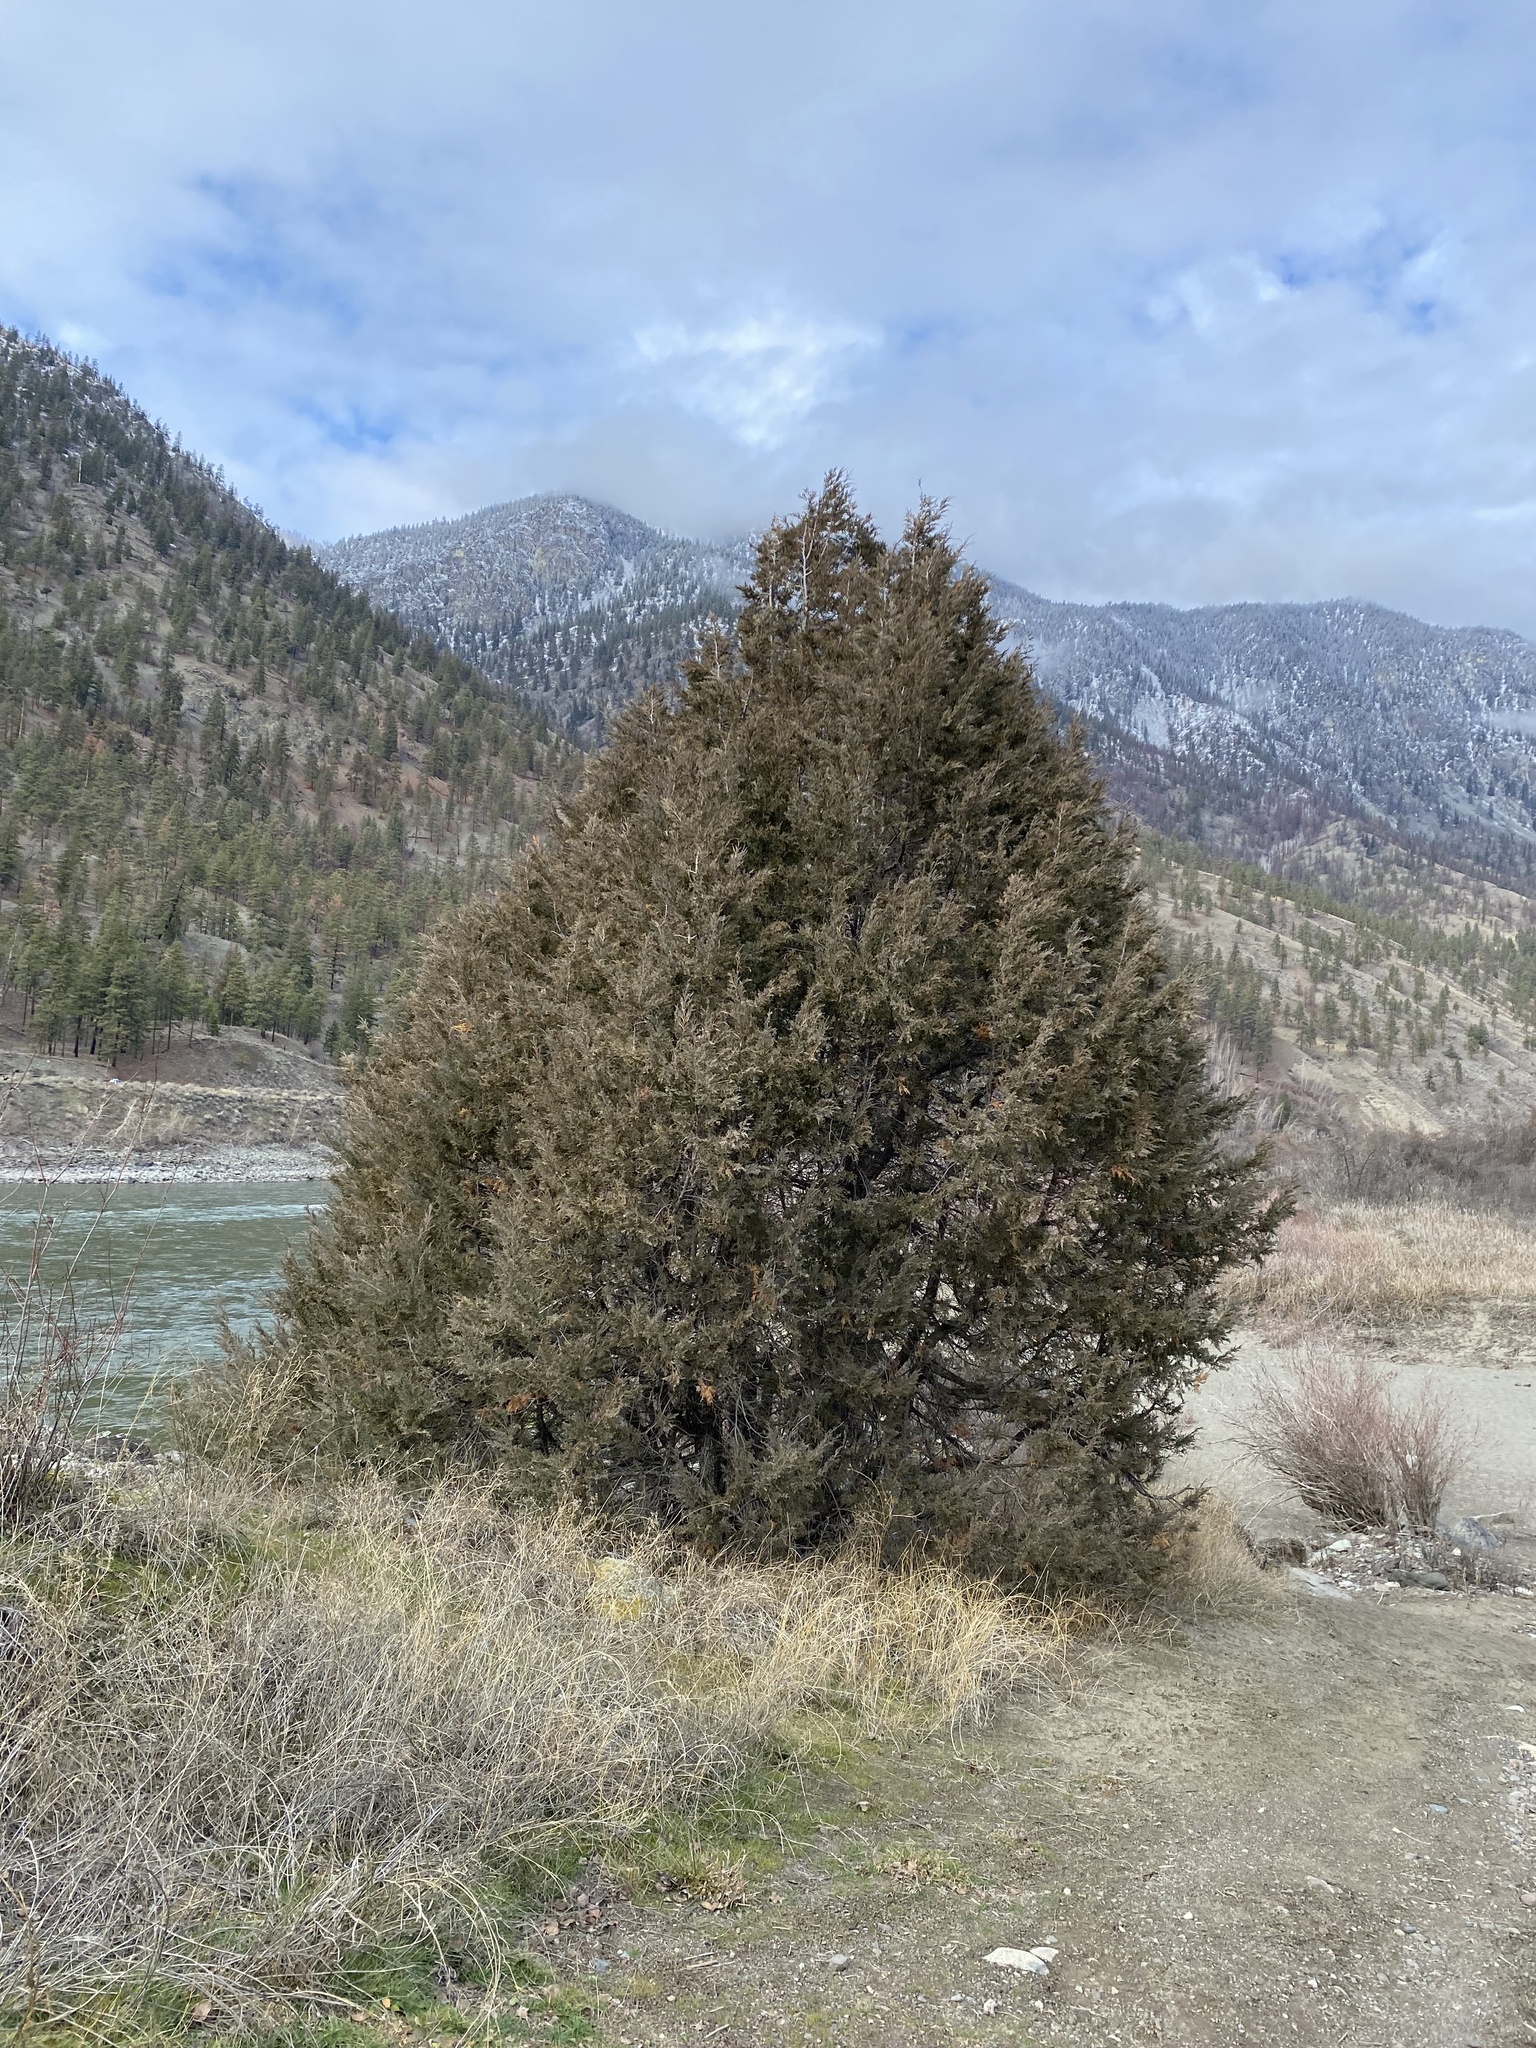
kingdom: Plantae
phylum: Tracheophyta
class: Pinopsida
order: Pinales
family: Cupressaceae
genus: Juniperus
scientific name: Juniperus scopulorum
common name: Rocky mountain juniper
